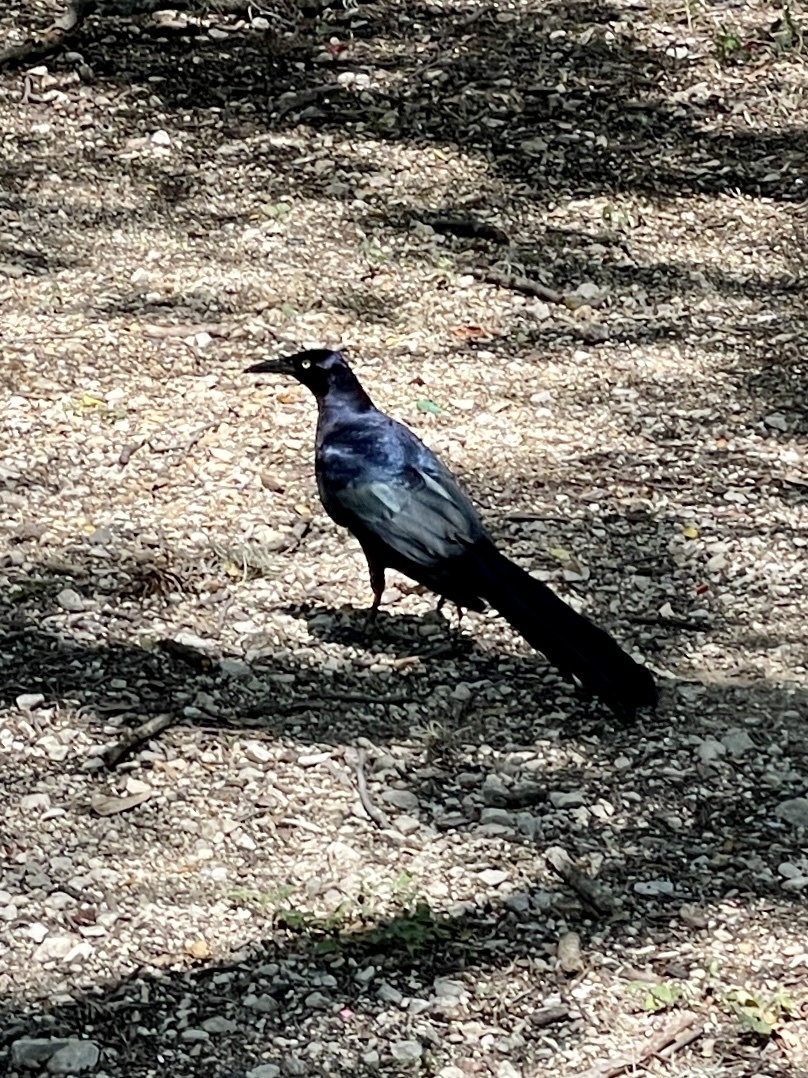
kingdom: Animalia
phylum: Chordata
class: Aves
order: Passeriformes
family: Icteridae
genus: Quiscalus
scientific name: Quiscalus mexicanus
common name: Great-tailed grackle
